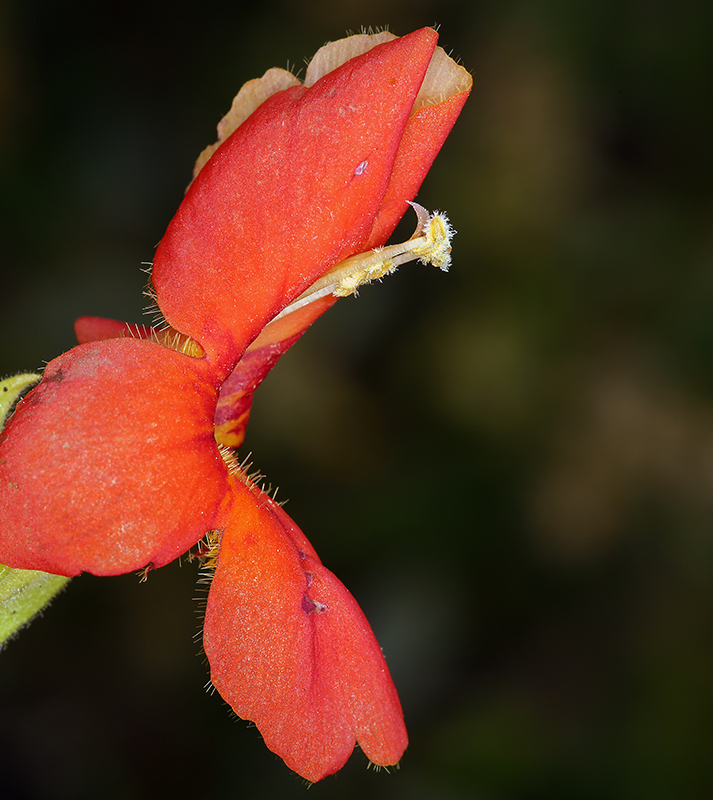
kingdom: Plantae
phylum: Tracheophyta
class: Magnoliopsida
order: Lamiales
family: Phrymaceae
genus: Erythranthe
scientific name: Erythranthe cardinalis
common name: Scarlet monkey-flower
